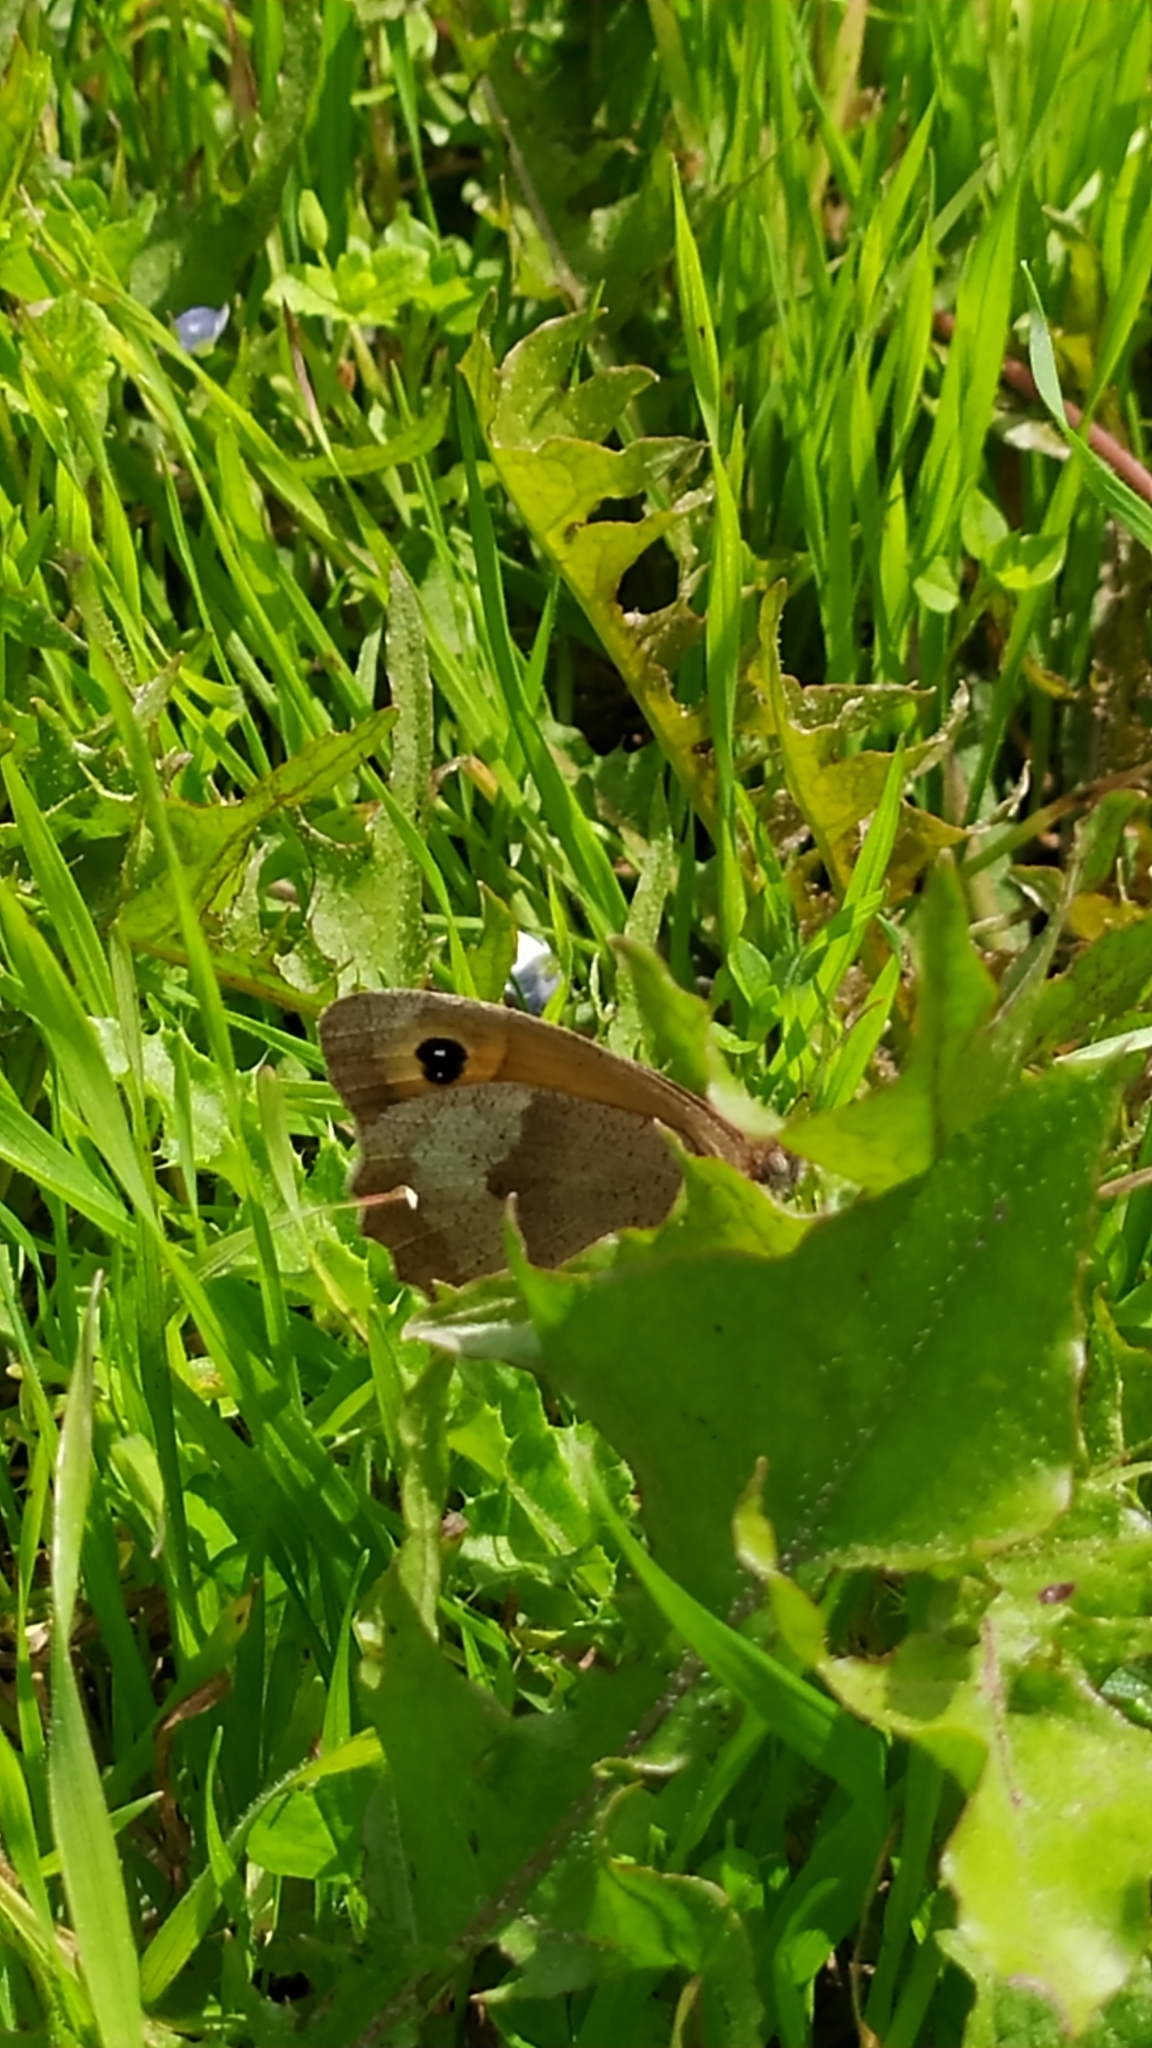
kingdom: Animalia
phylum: Arthropoda
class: Insecta
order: Lepidoptera
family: Nymphalidae
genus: Maniola
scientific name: Maniola jurtina
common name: Meadow brown
